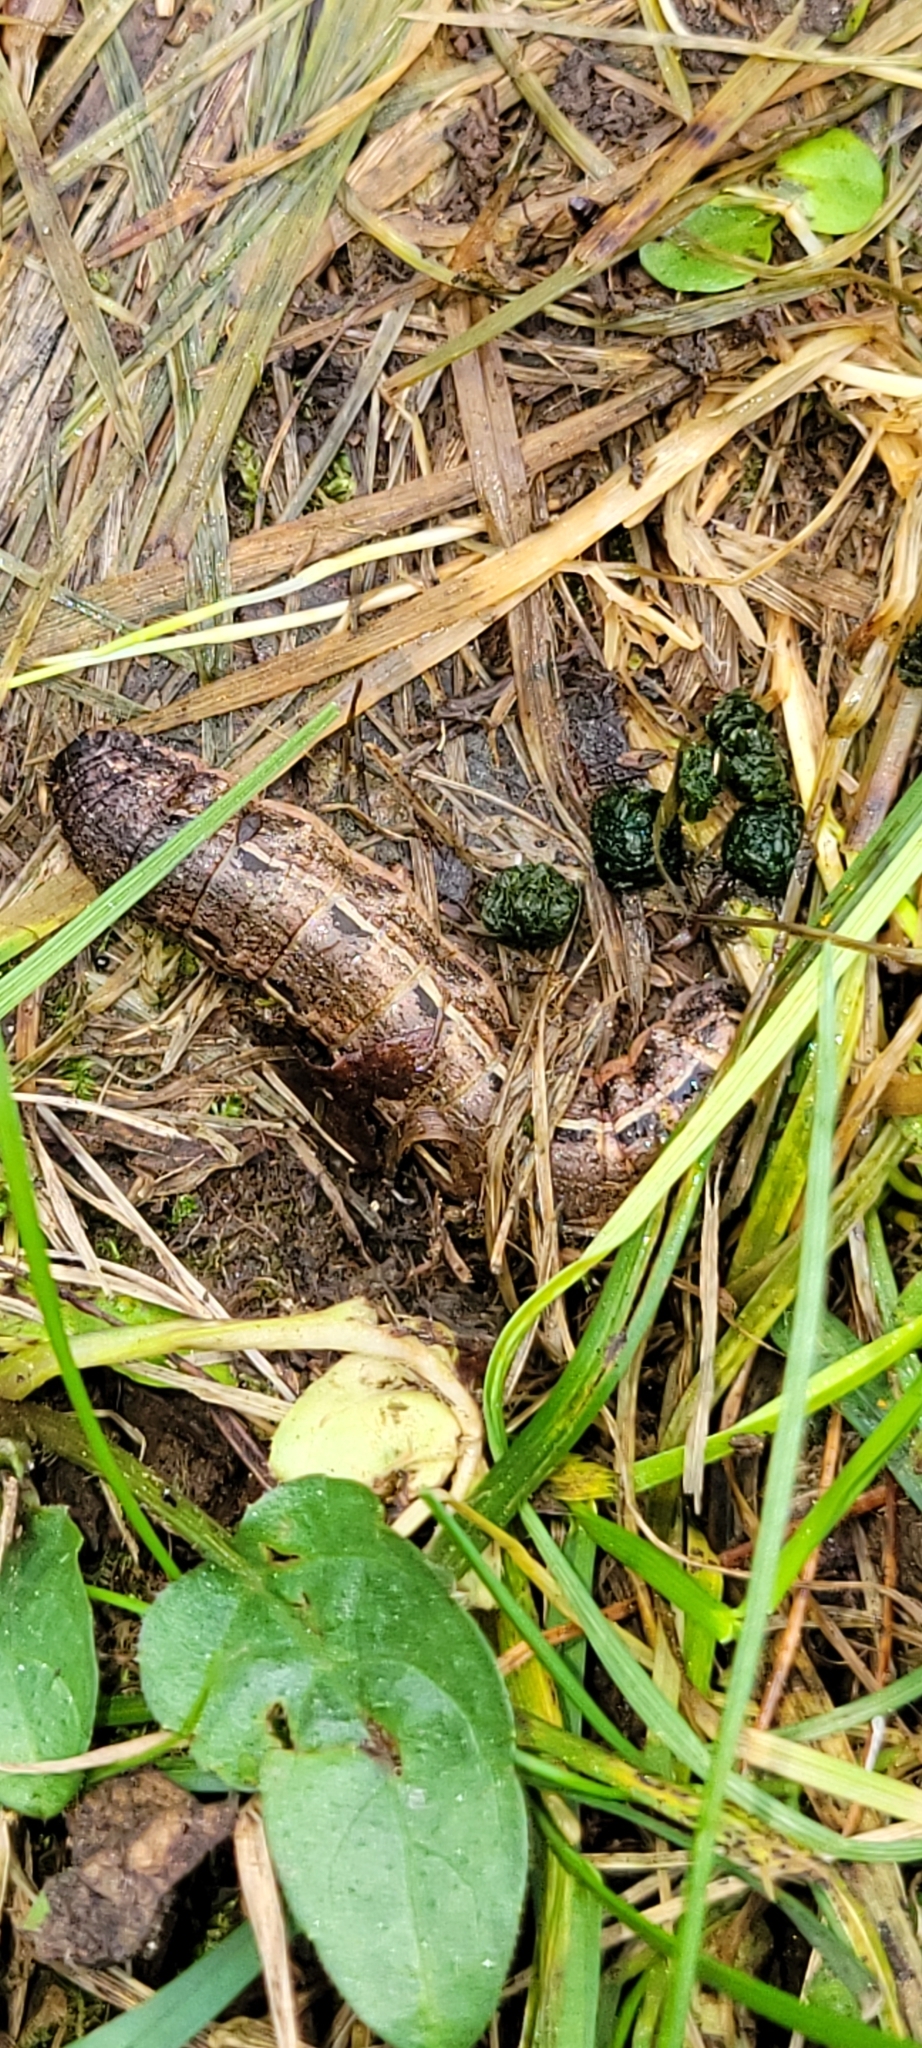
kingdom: Animalia
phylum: Arthropoda
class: Insecta
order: Lepidoptera
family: Noctuidae
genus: Noctua
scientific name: Noctua pronuba
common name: Large yellow underwing
